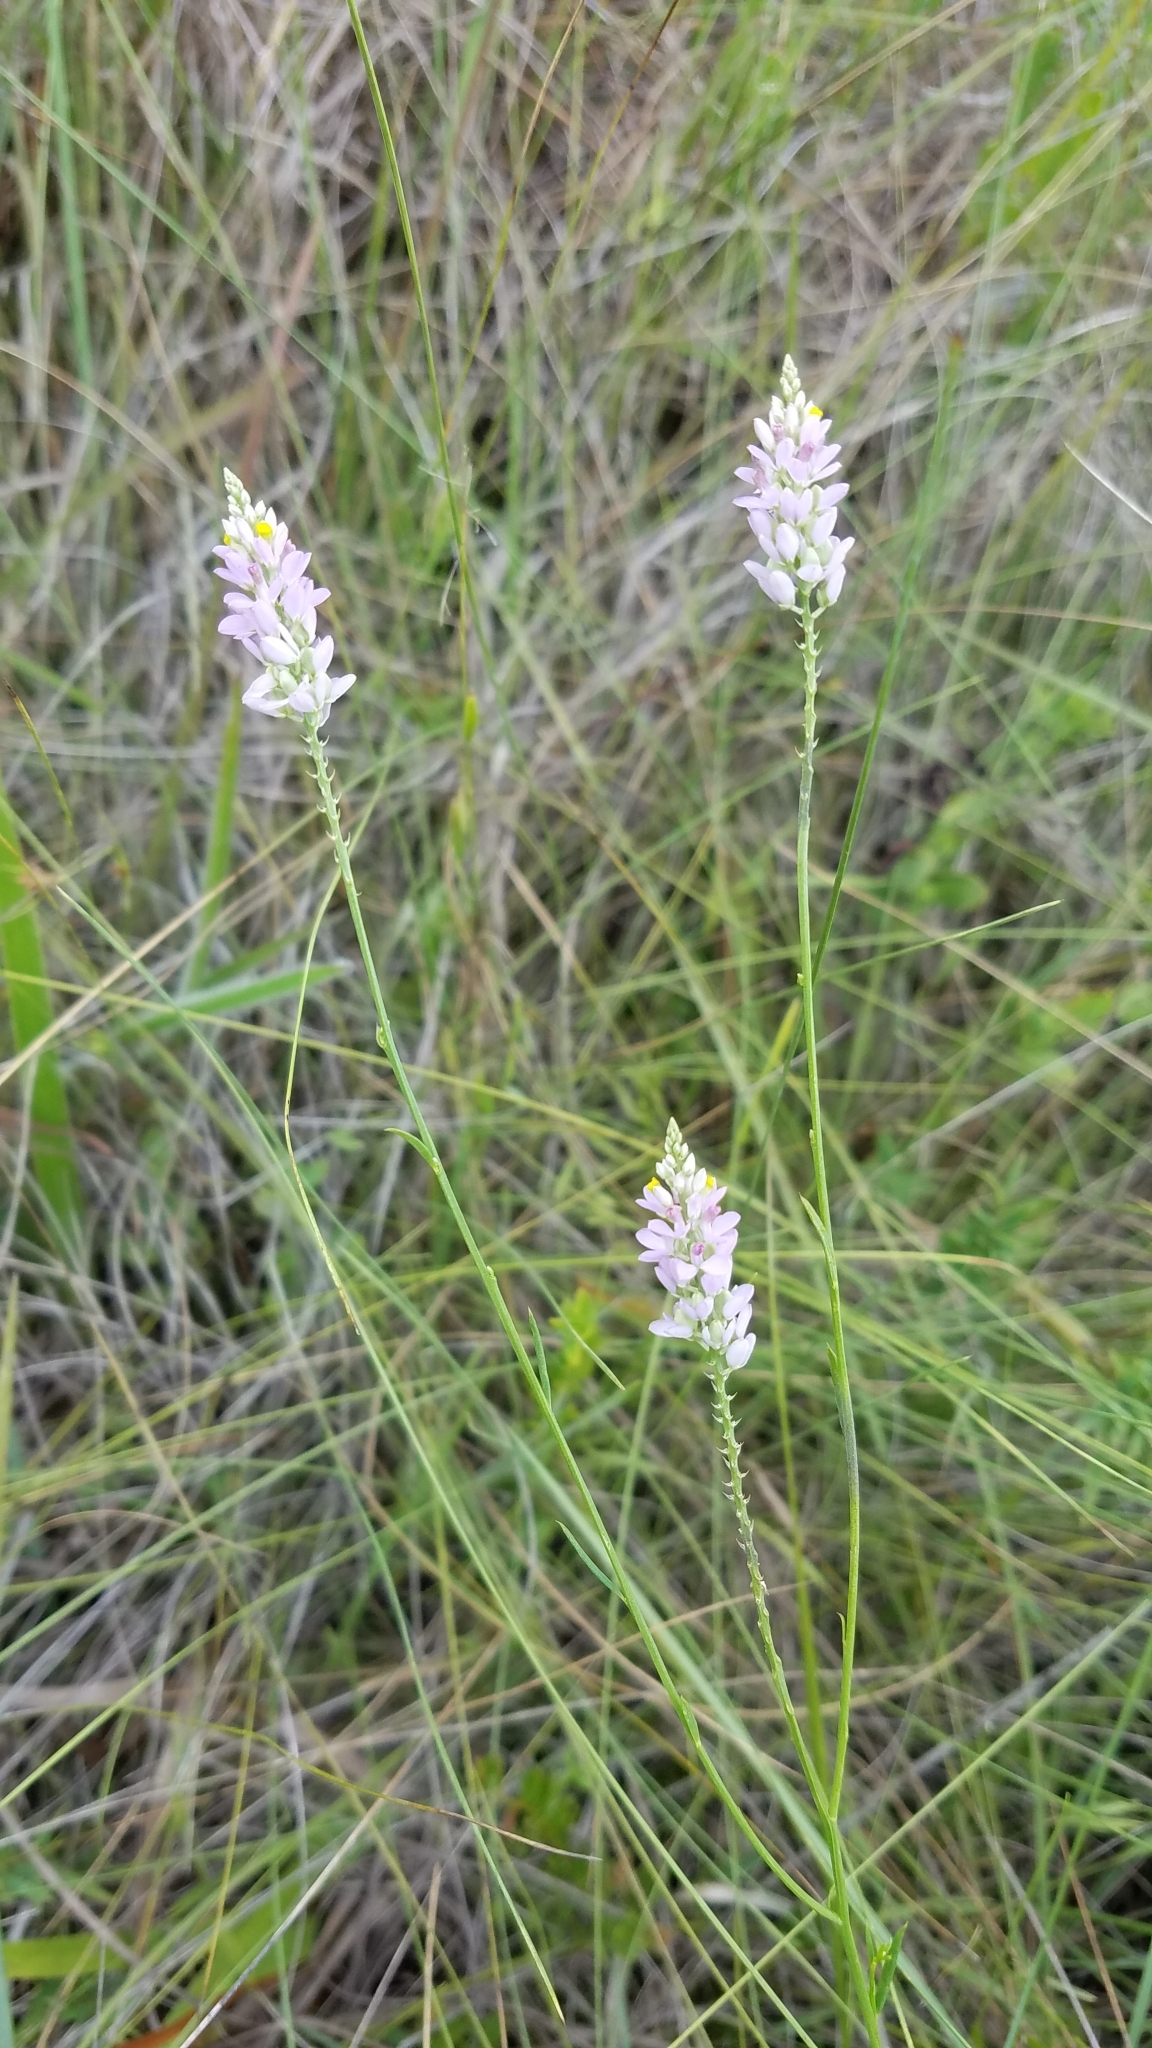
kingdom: Plantae
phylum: Tracheophyta
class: Magnoliopsida
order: Fabales
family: Polygalaceae
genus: Polygala
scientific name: Polygala chapmanii
